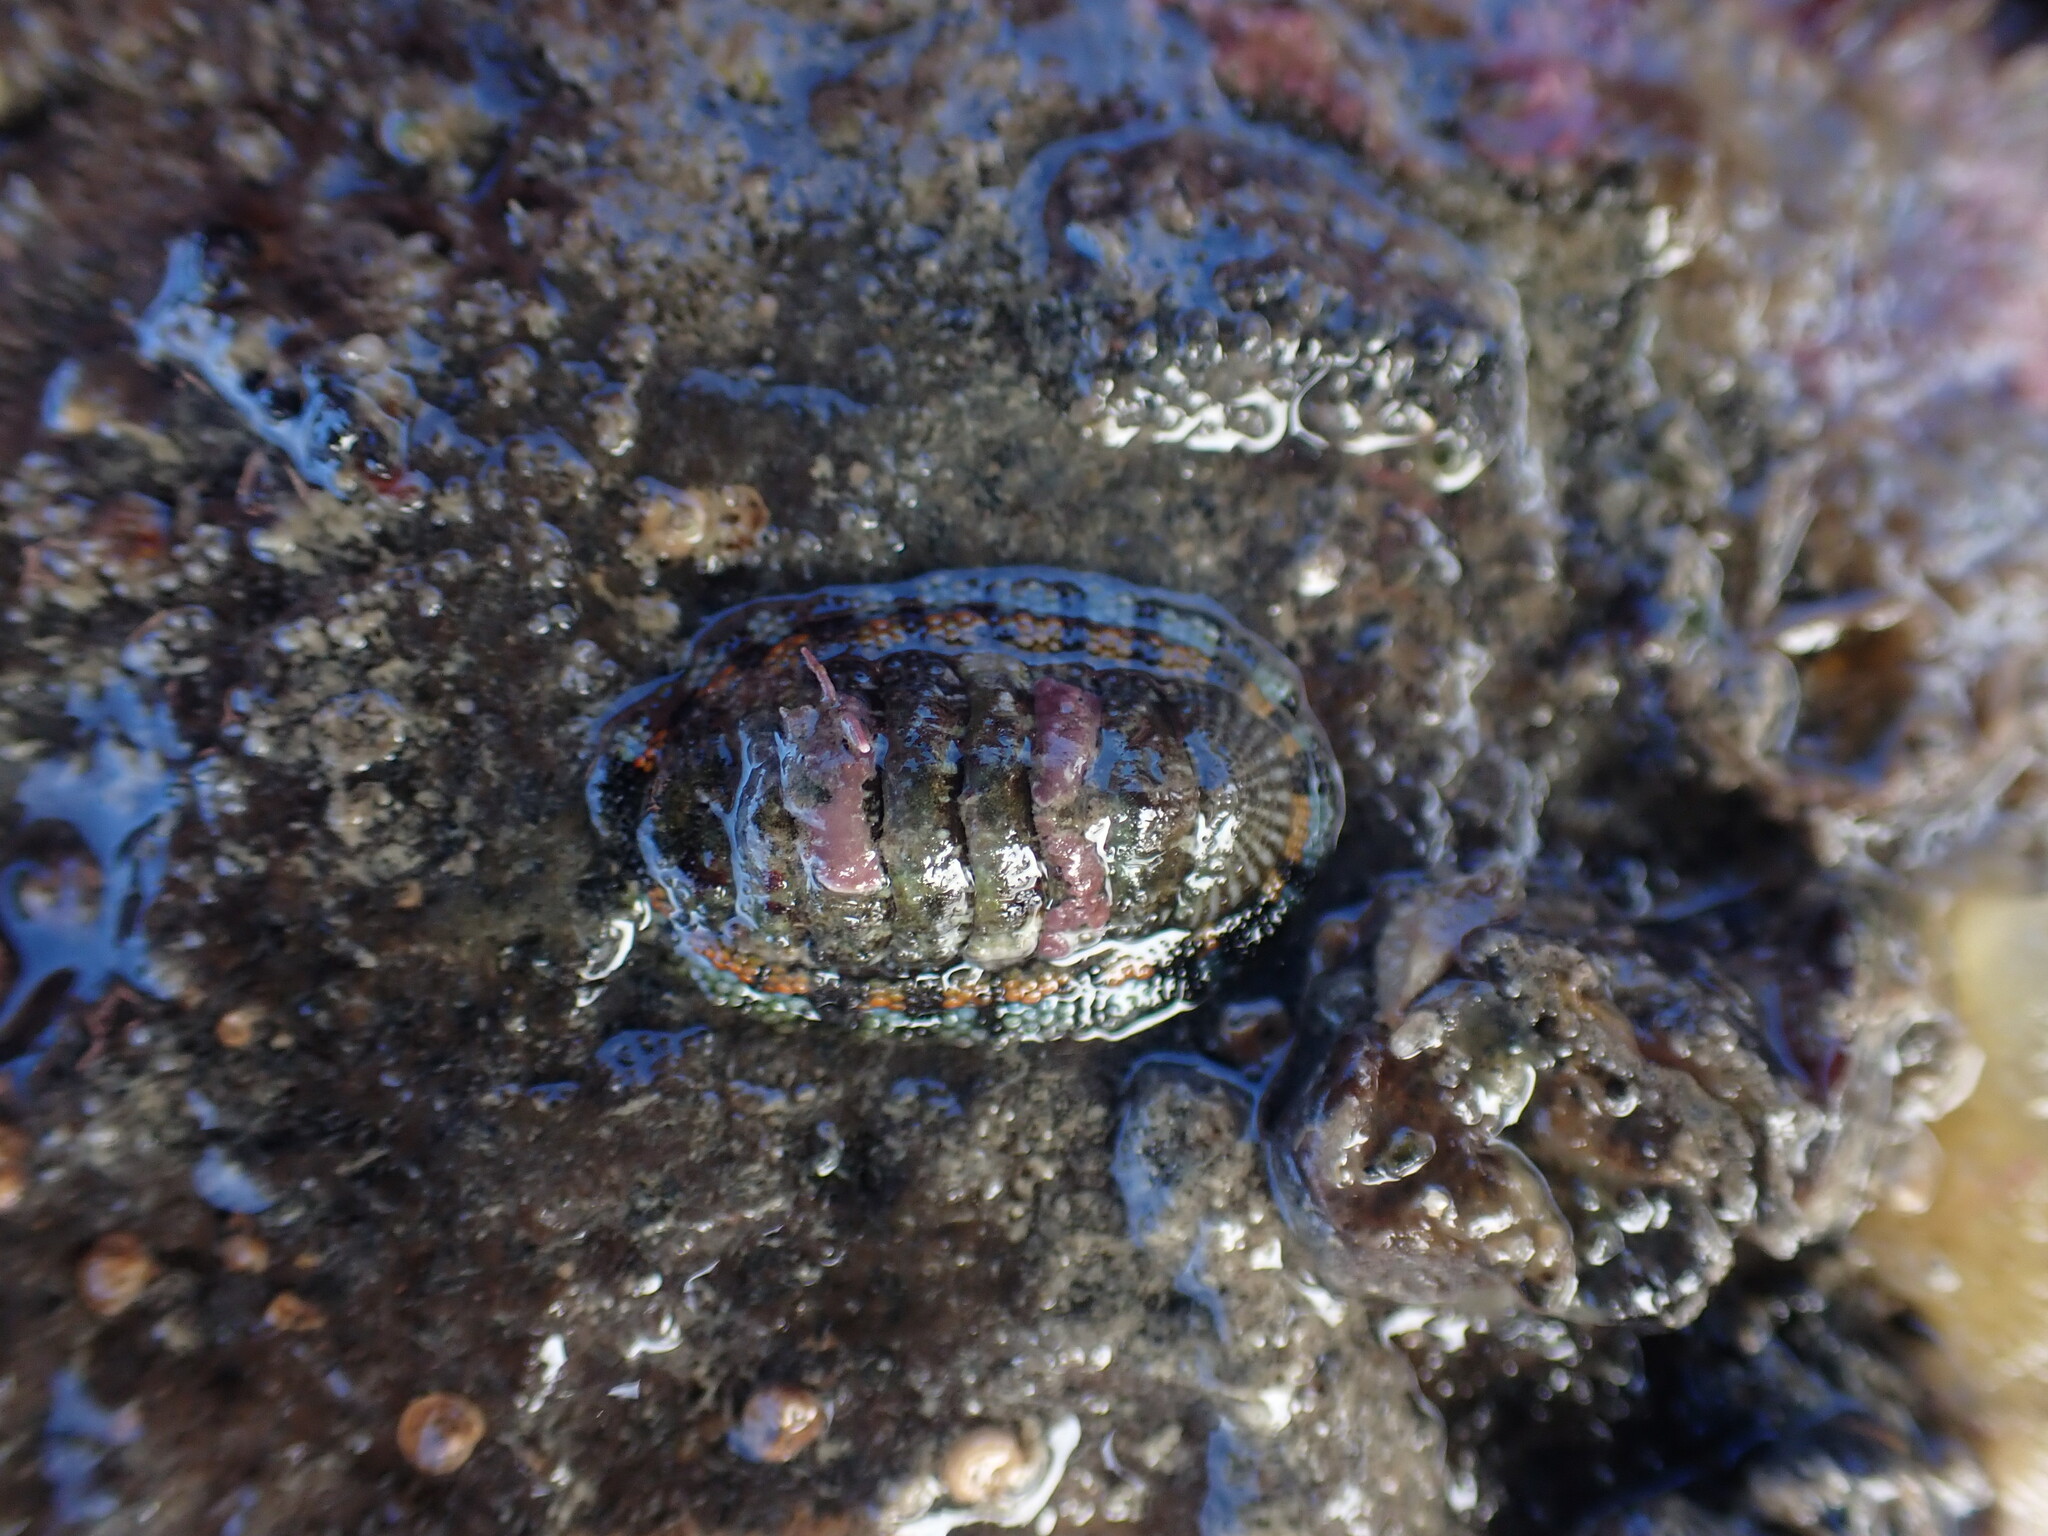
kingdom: Animalia
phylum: Mollusca
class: Polyplacophora
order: Chitonida
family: Chitonidae
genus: Sypharochiton
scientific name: Sypharochiton sinclairi
